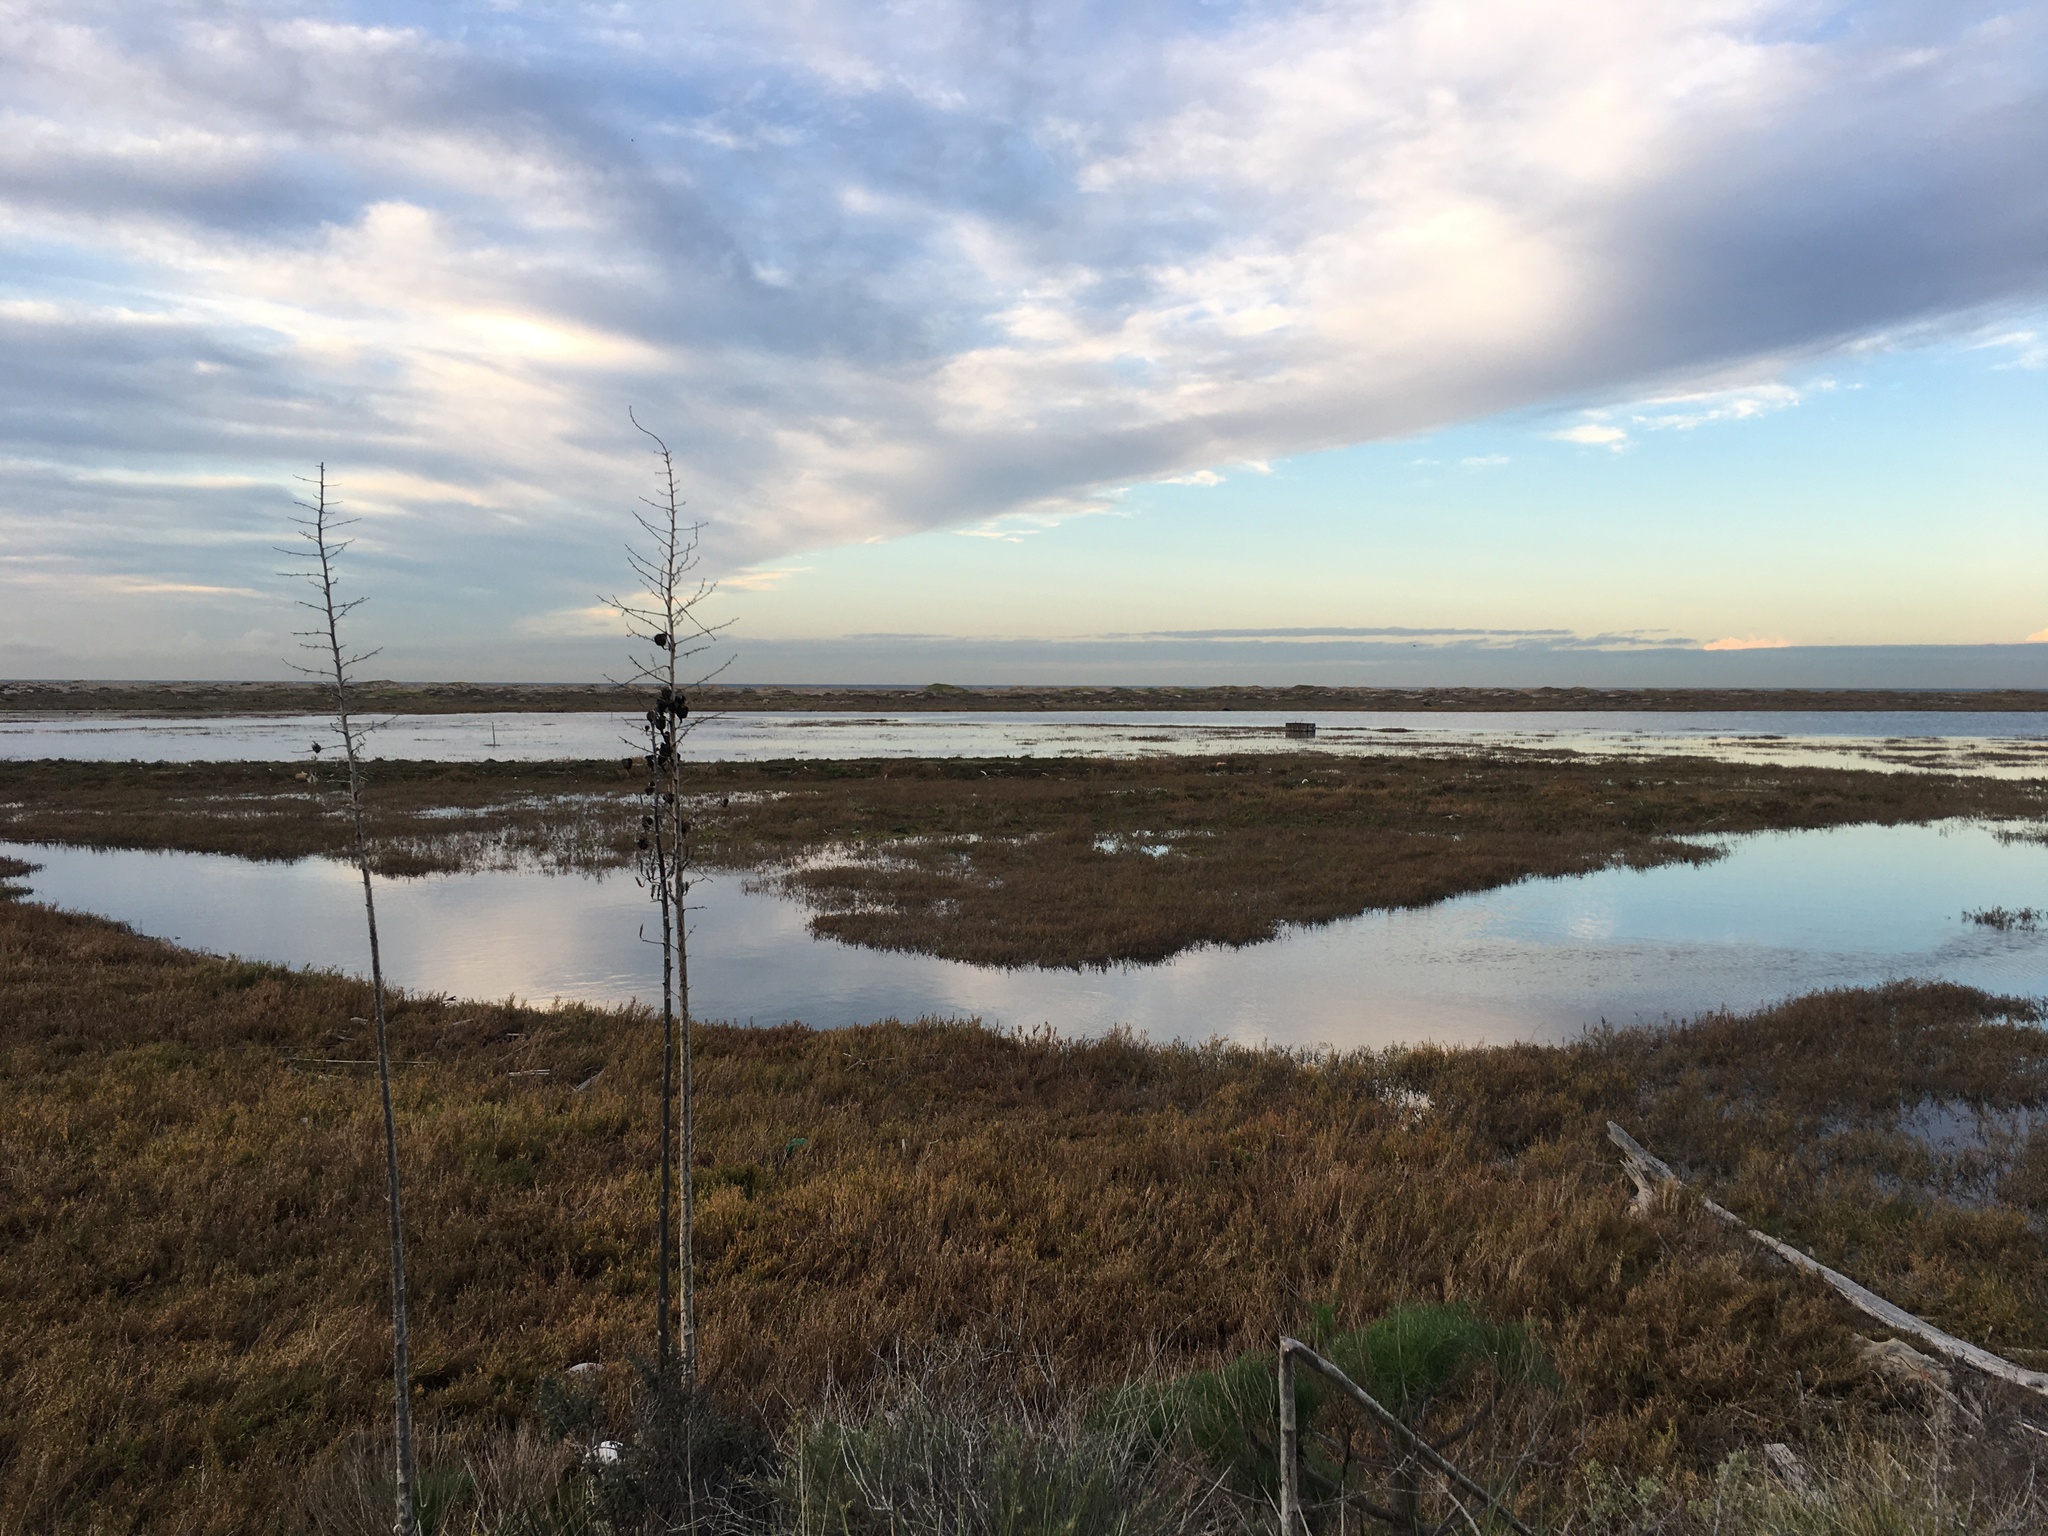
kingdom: Plantae
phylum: Tracheophyta
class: Liliopsida
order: Asparagales
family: Asparagaceae
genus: Hesperoyucca
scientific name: Hesperoyucca whipplei
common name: Our lord's-candle
